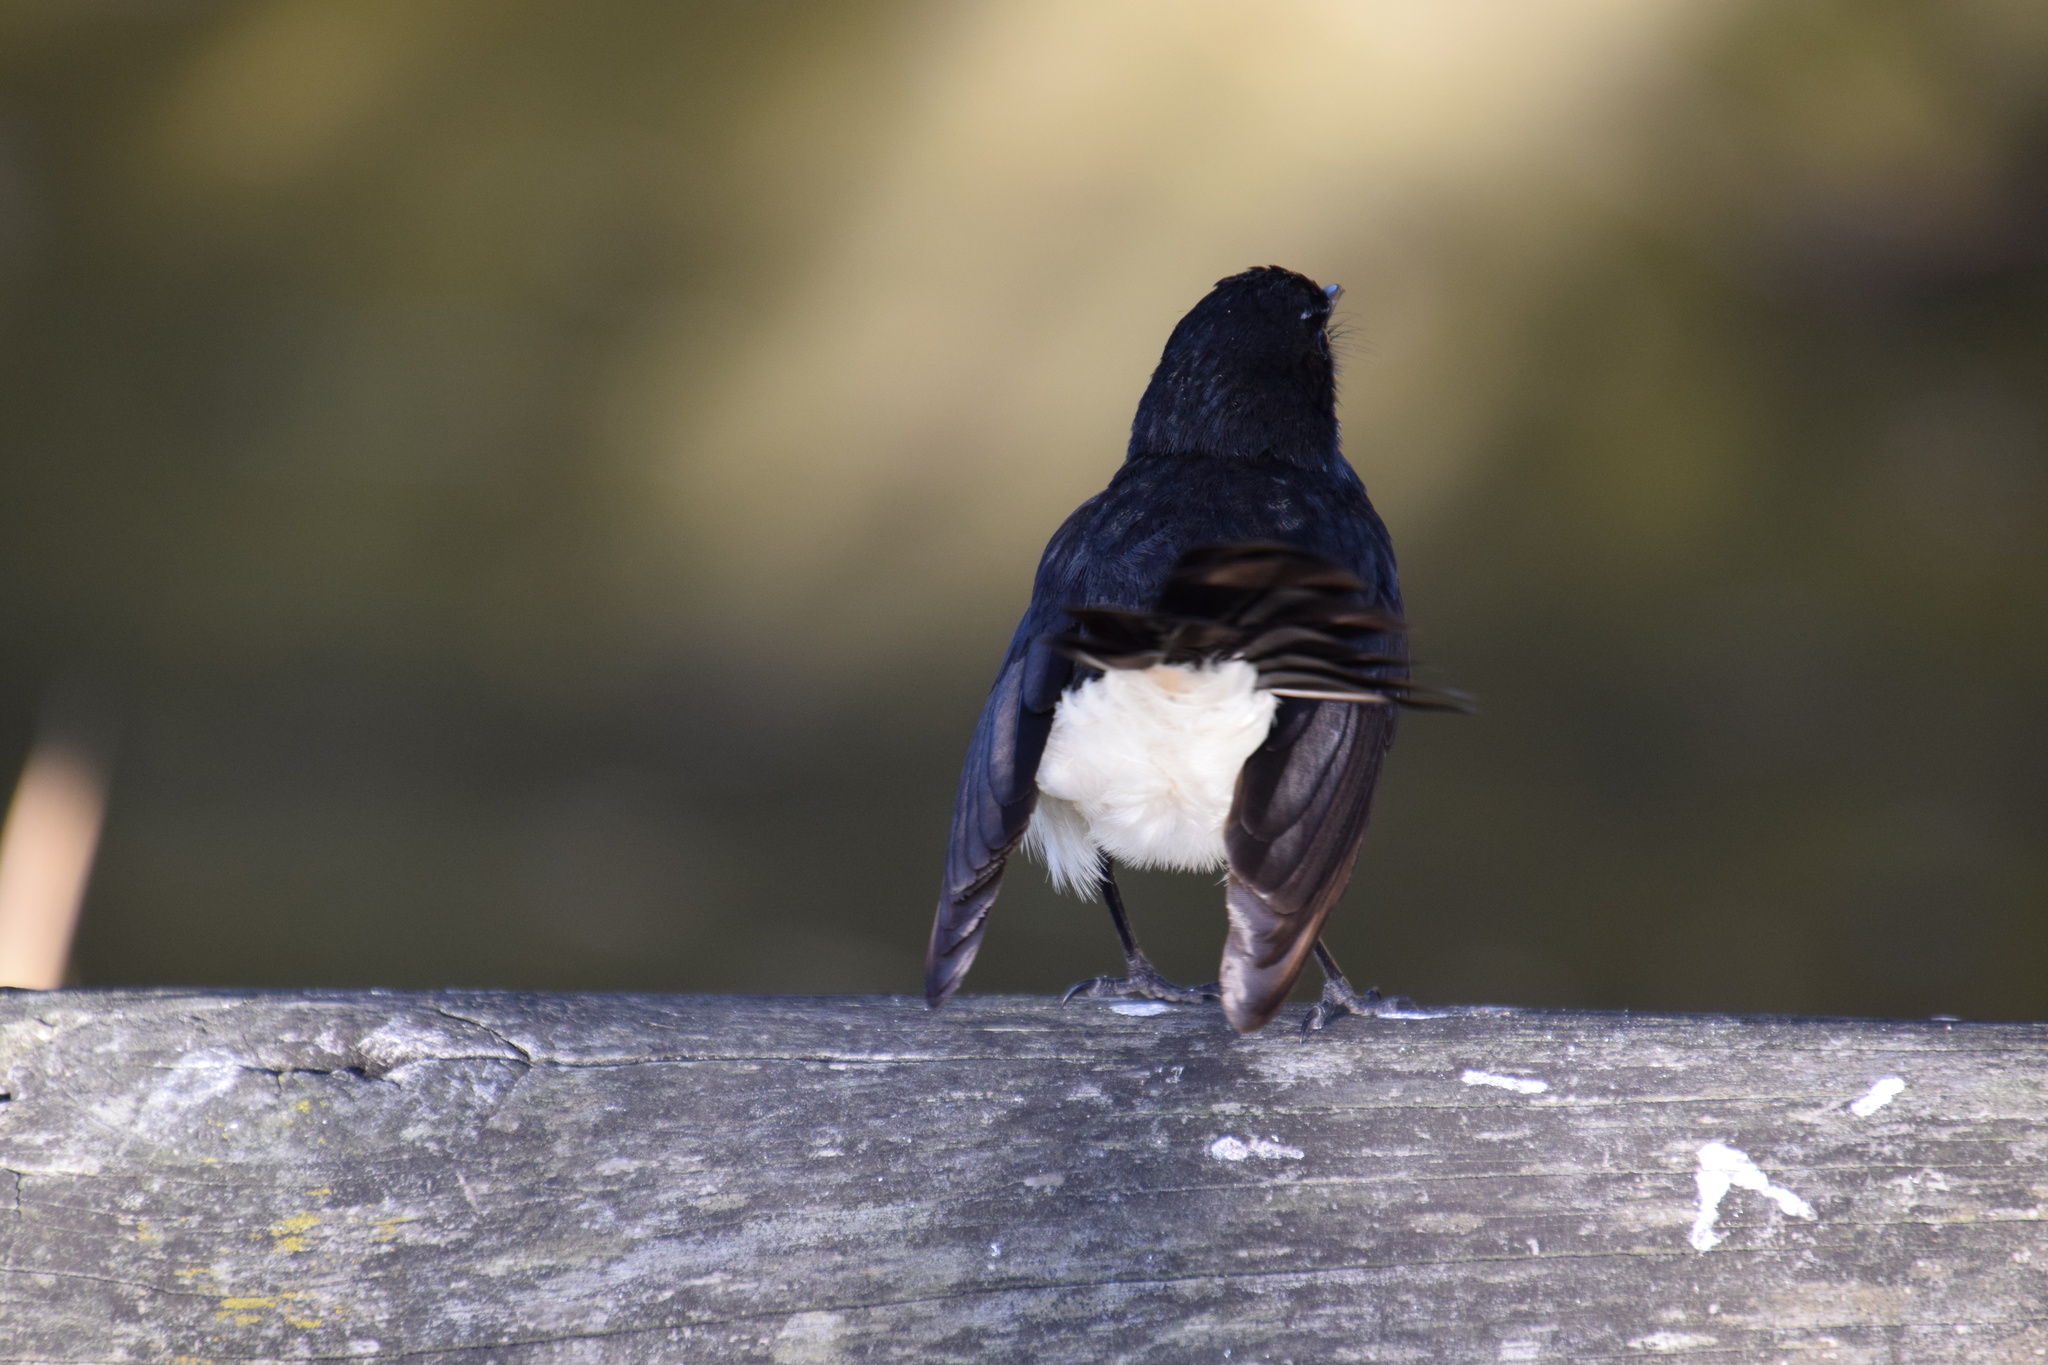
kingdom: Animalia
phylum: Chordata
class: Aves
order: Passeriformes
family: Rhipiduridae
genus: Rhipidura
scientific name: Rhipidura leucophrys
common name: Willie wagtail
